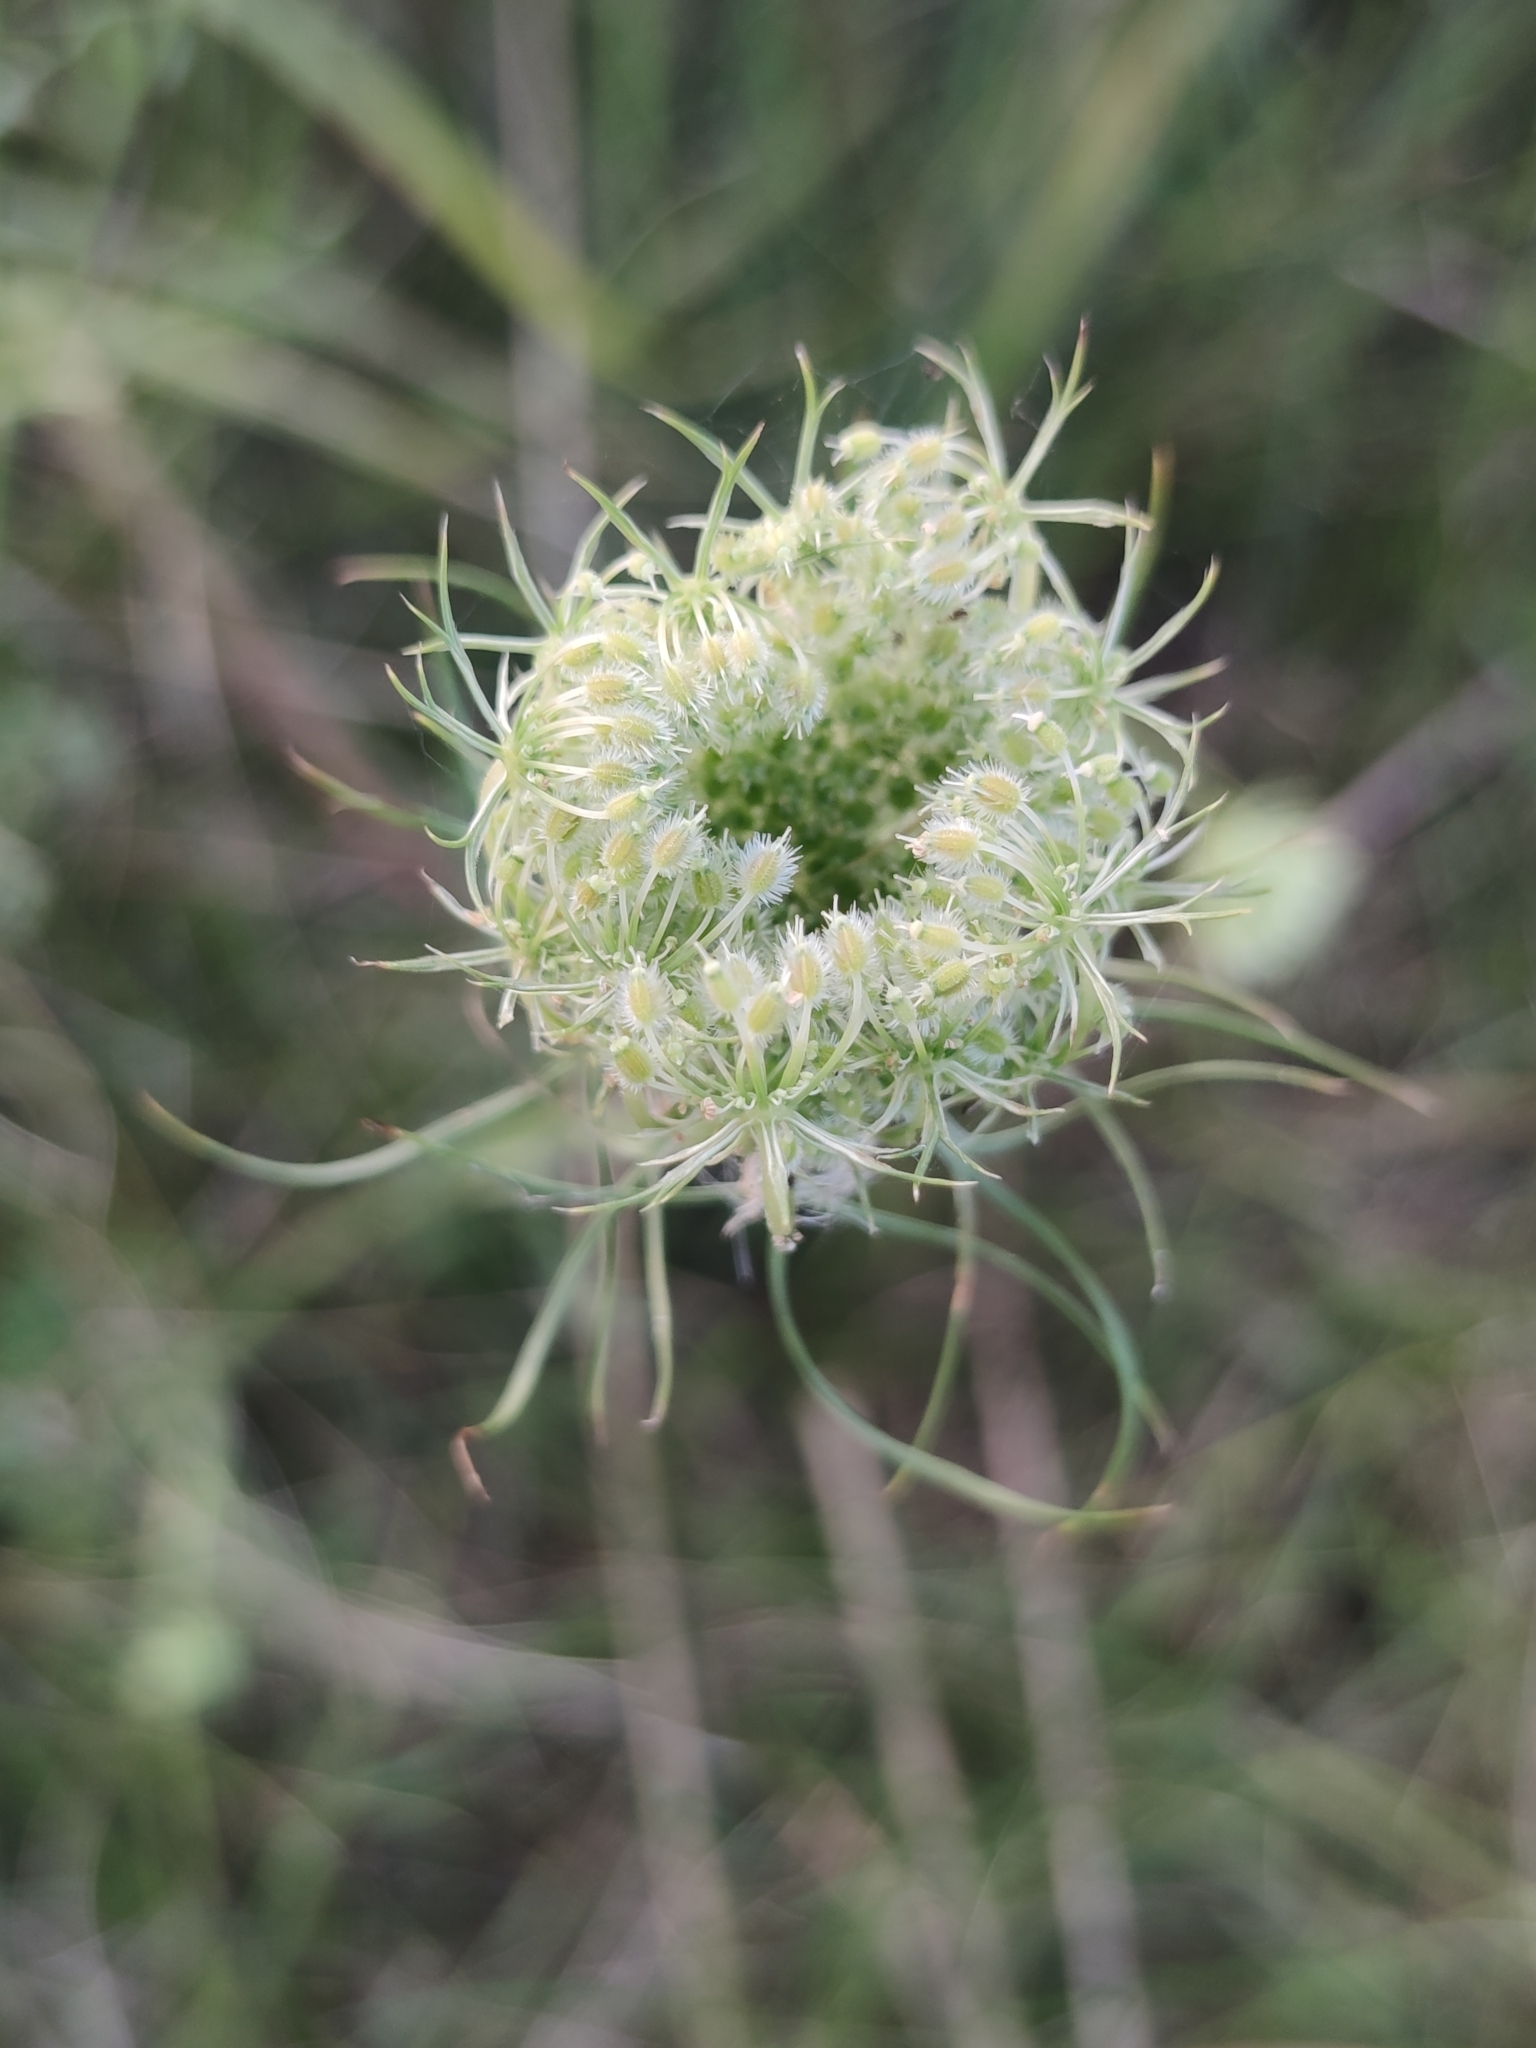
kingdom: Plantae
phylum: Tracheophyta
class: Magnoliopsida
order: Apiales
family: Apiaceae
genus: Daucus
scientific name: Daucus carota
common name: Wild carrot
